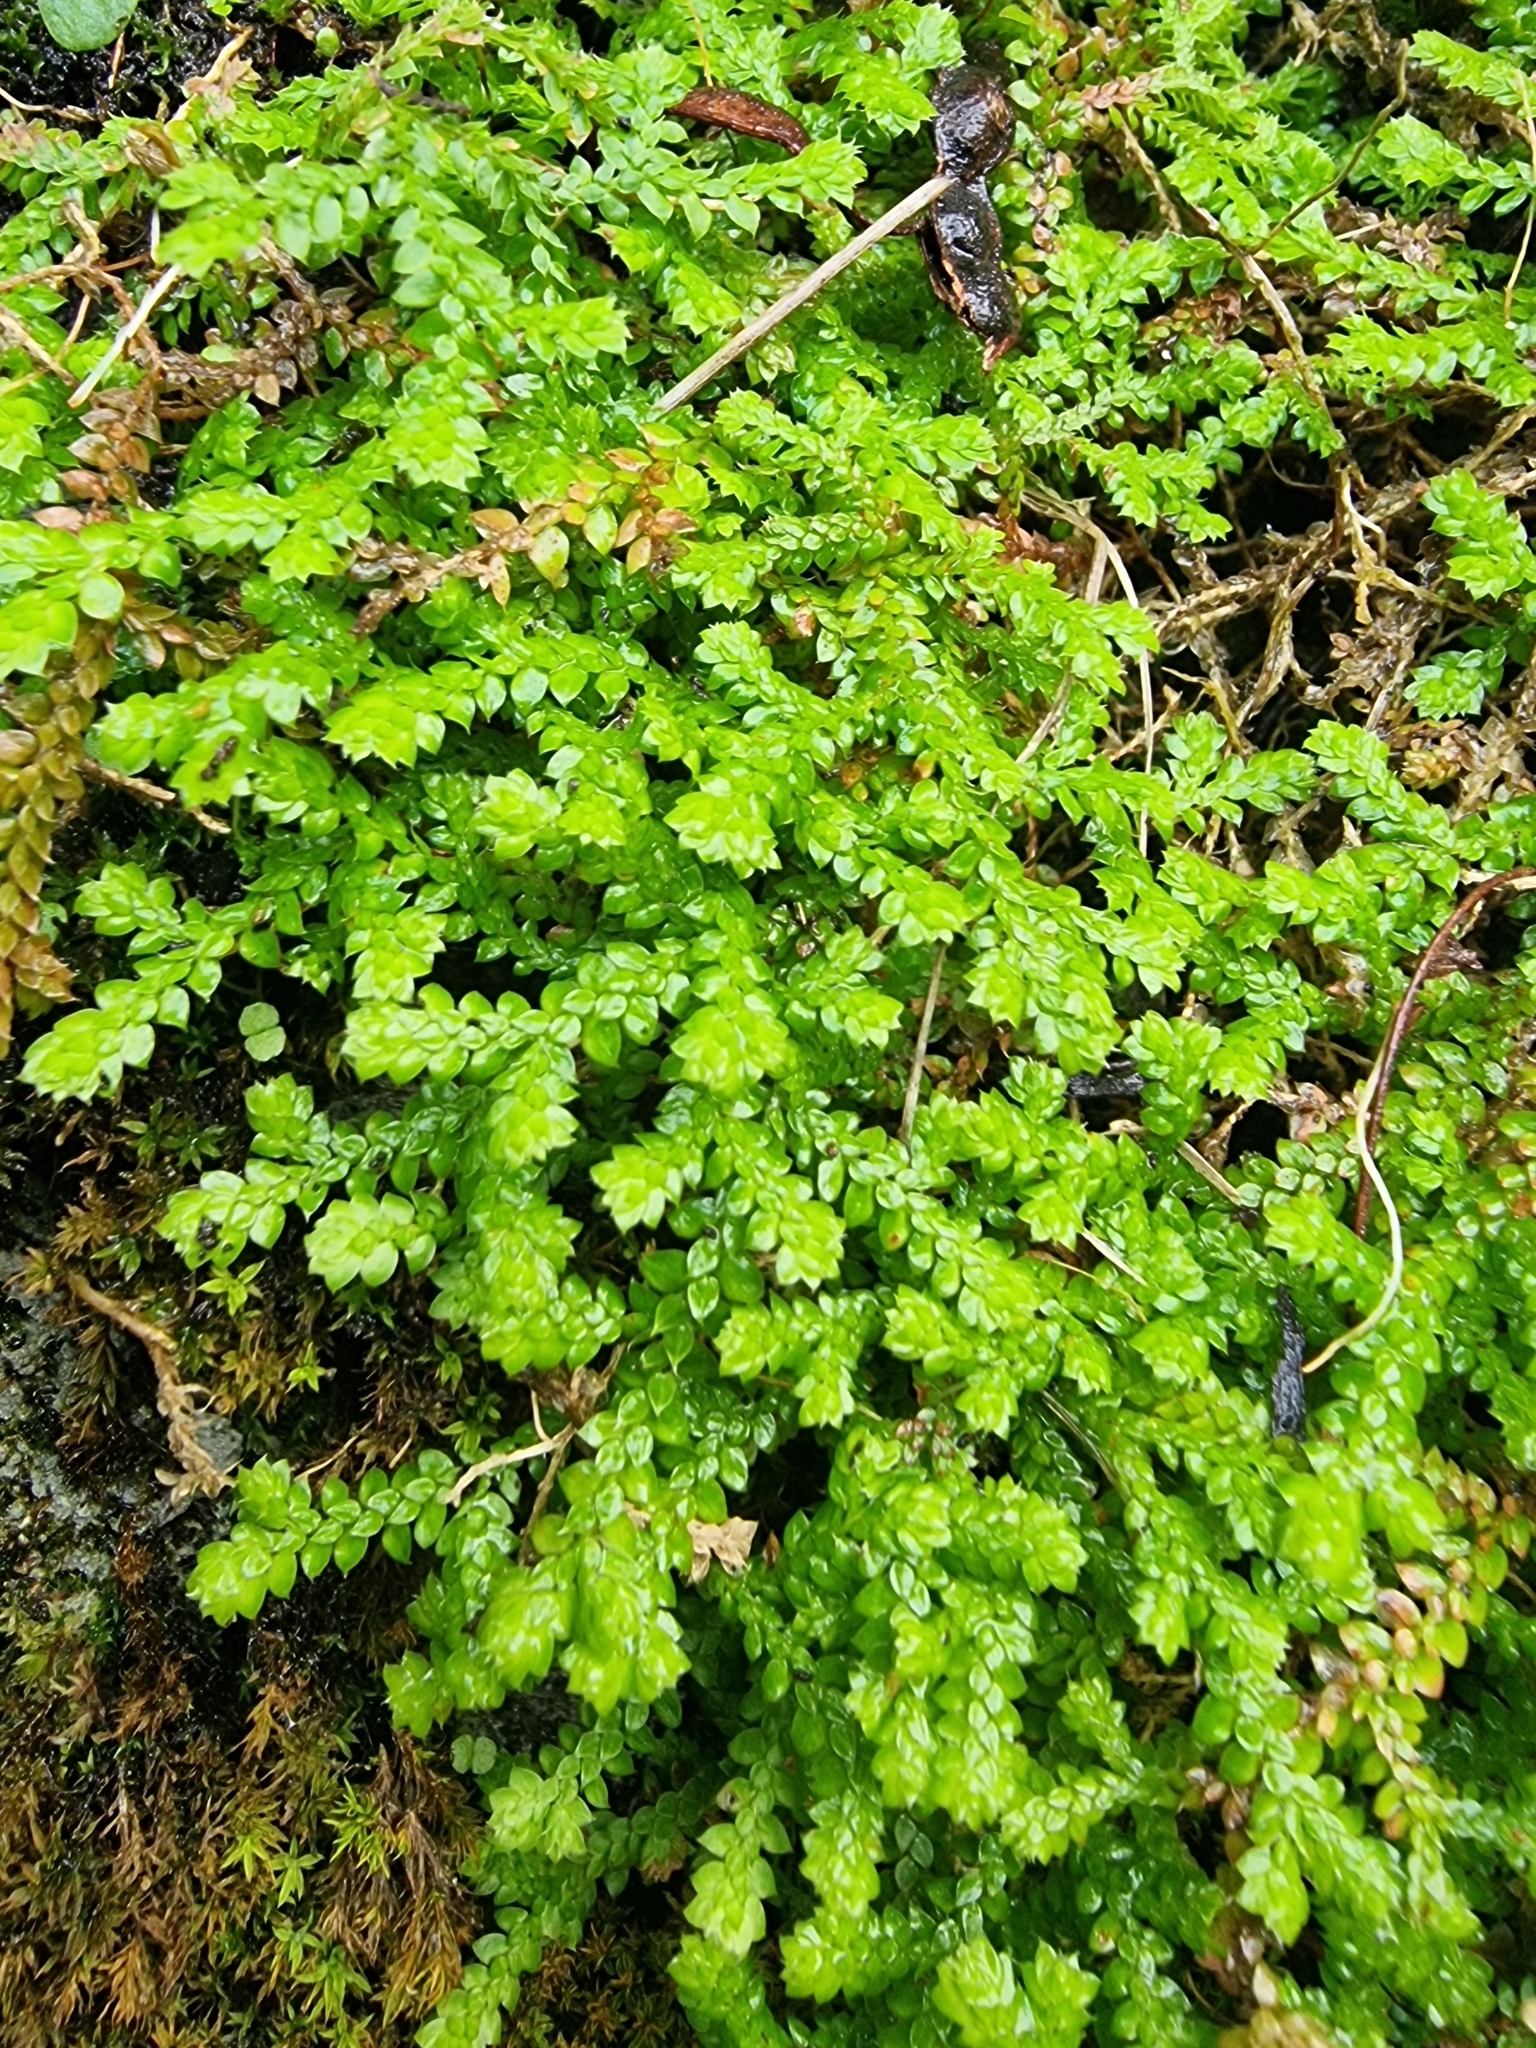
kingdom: Plantae
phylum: Tracheophyta
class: Lycopodiopsida
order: Selaginellales
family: Selaginellaceae
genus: Selaginella
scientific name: Selaginella denticulata
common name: Toothed-leaved clubmoss
